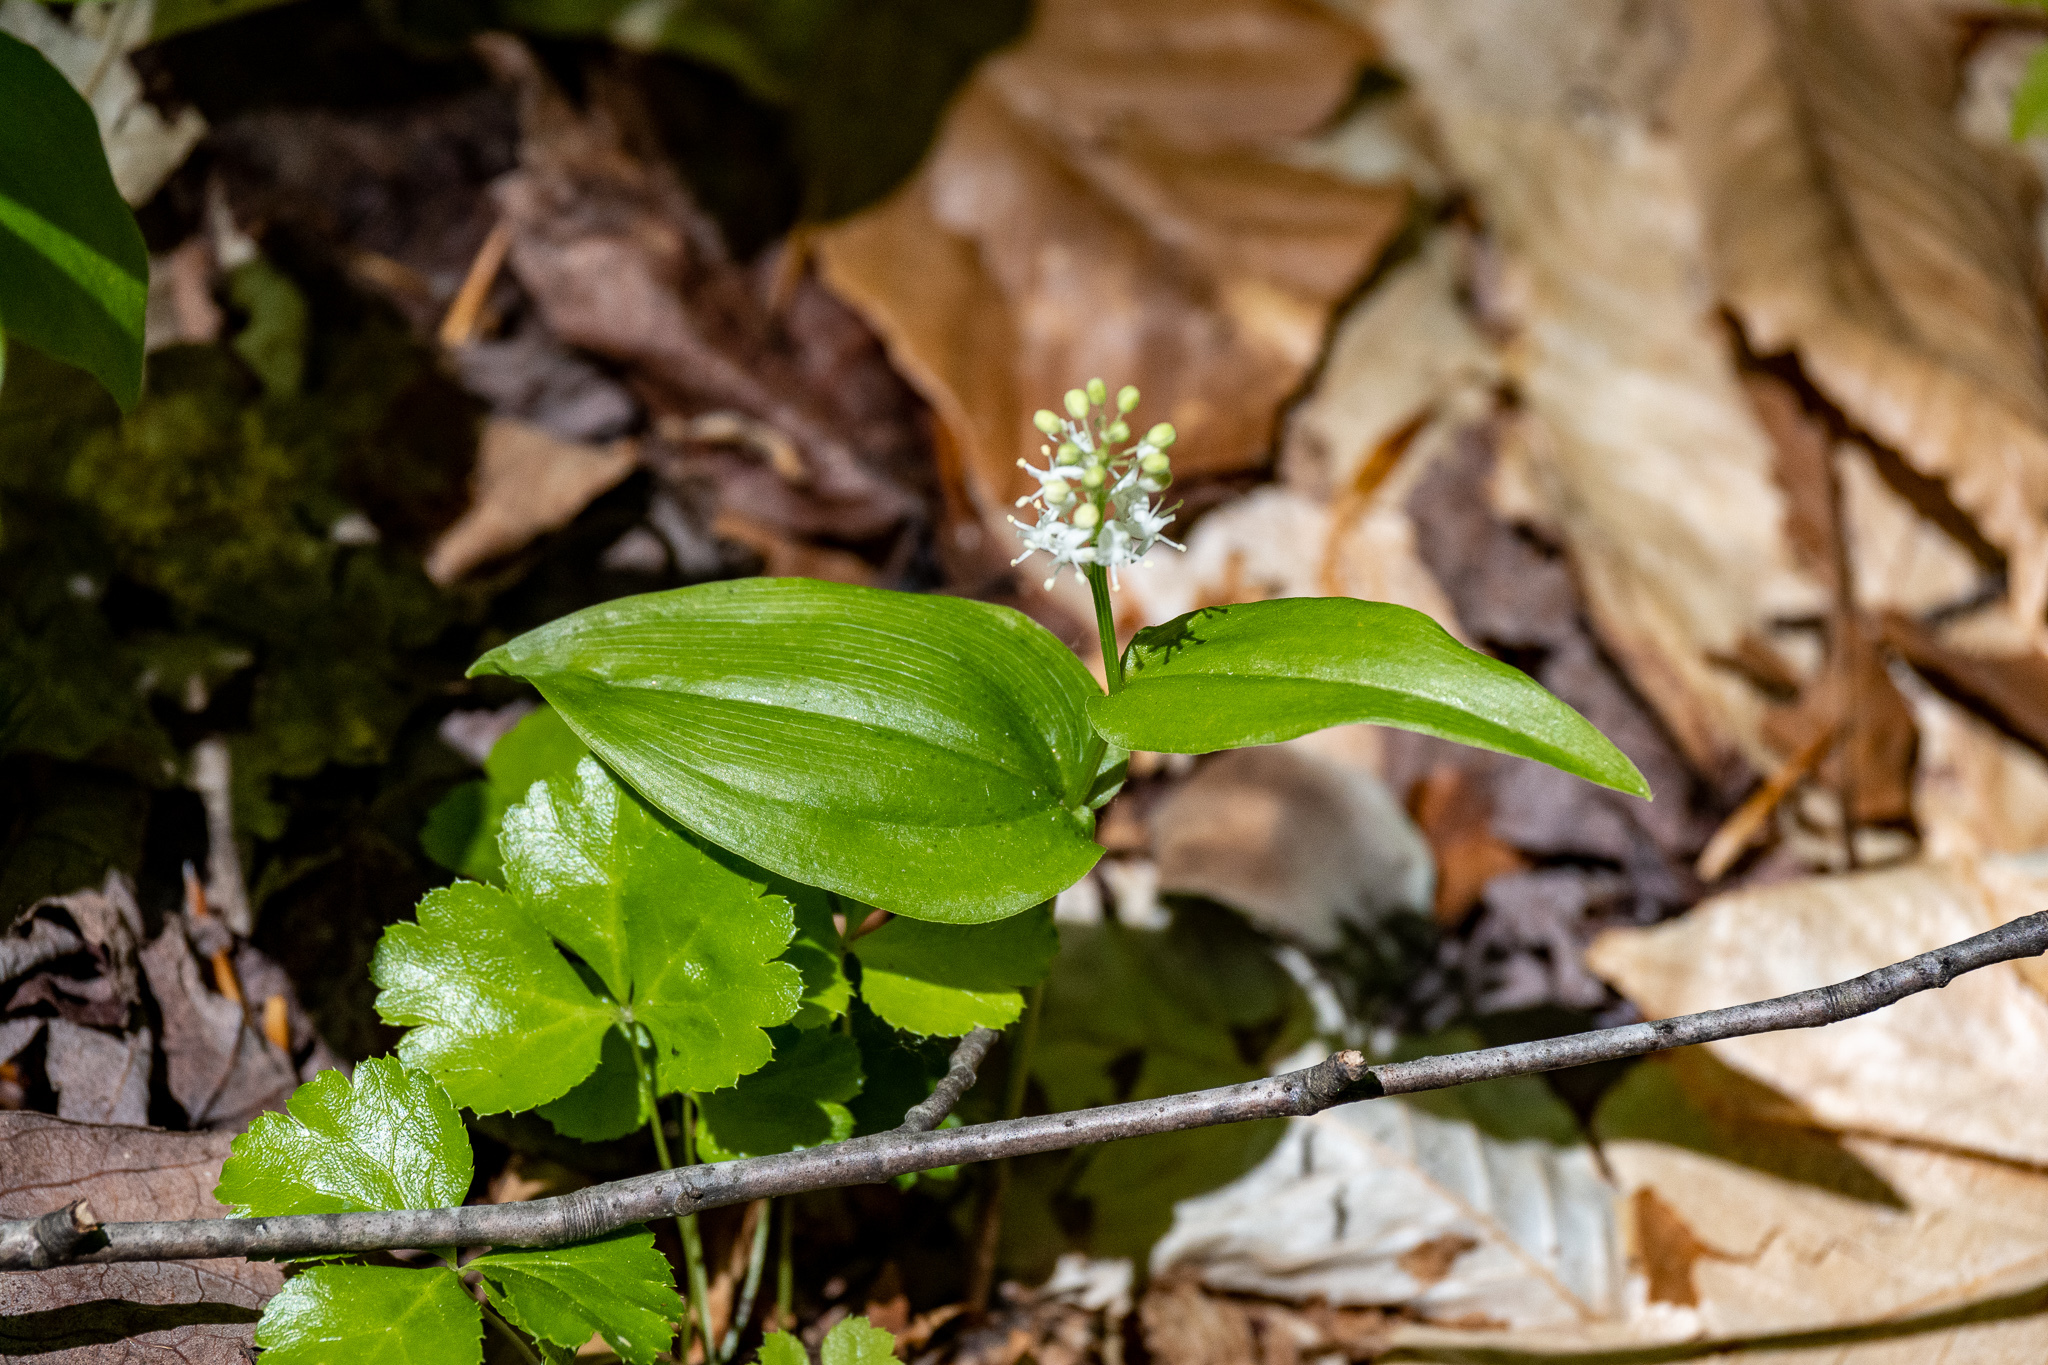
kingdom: Plantae
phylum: Tracheophyta
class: Liliopsida
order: Asparagales
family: Asparagaceae
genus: Maianthemum
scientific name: Maianthemum canadense
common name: False lily-of-the-valley
